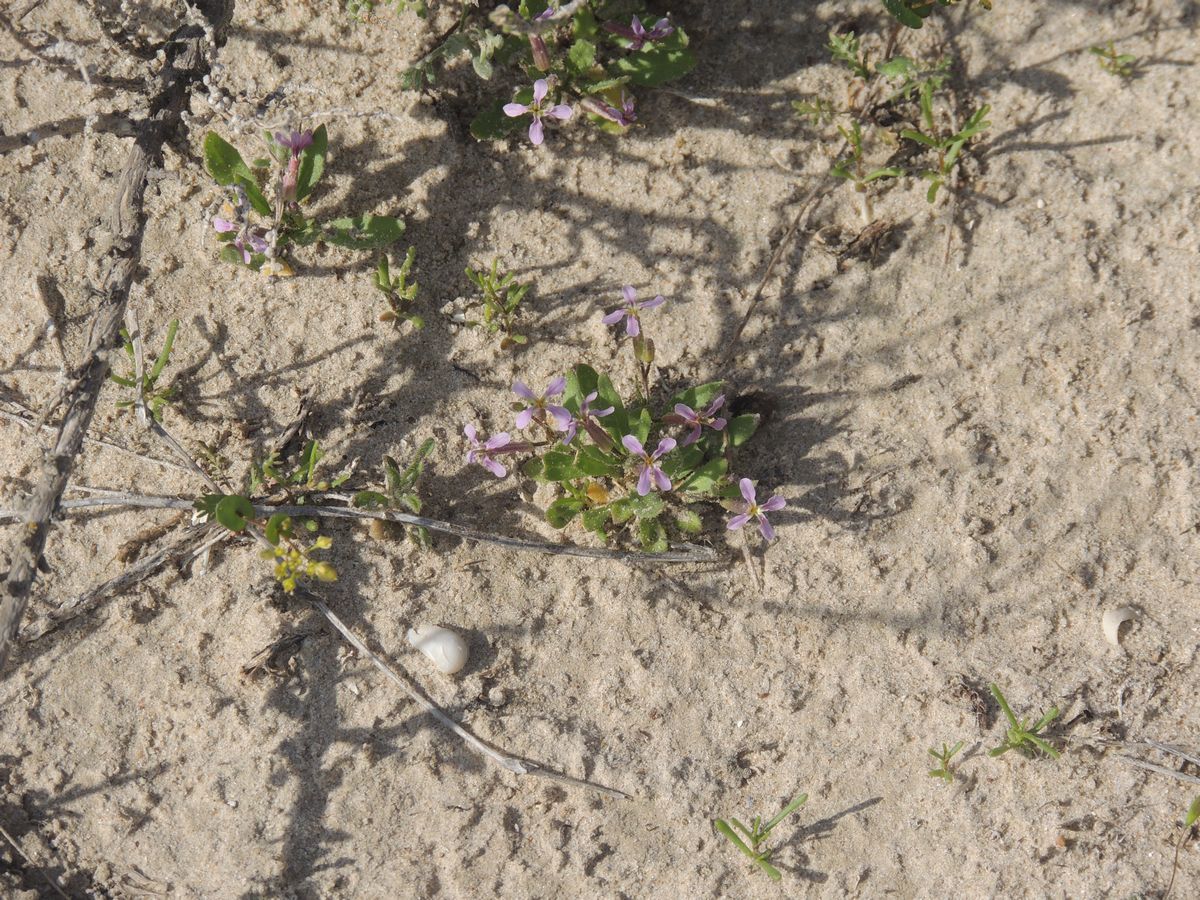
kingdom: Plantae
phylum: Tracheophyta
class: Magnoliopsida
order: Brassicales
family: Brassicaceae
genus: Chorispora
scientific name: Chorispora tenella
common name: Crossflower
